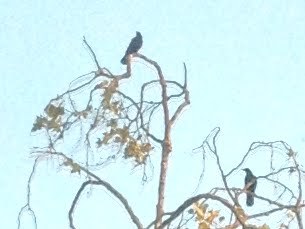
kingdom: Animalia
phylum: Chordata
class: Aves
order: Passeriformes
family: Corvidae
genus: Corvus
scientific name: Corvus brachyrhynchos
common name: American crow
